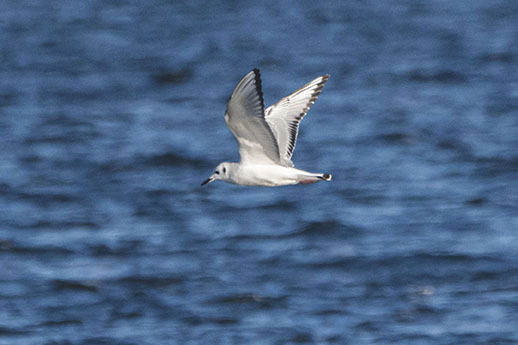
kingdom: Animalia
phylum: Chordata
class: Aves
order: Charadriiformes
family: Laridae
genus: Chroicocephalus
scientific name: Chroicocephalus philadelphia
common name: Bonaparte's gull
